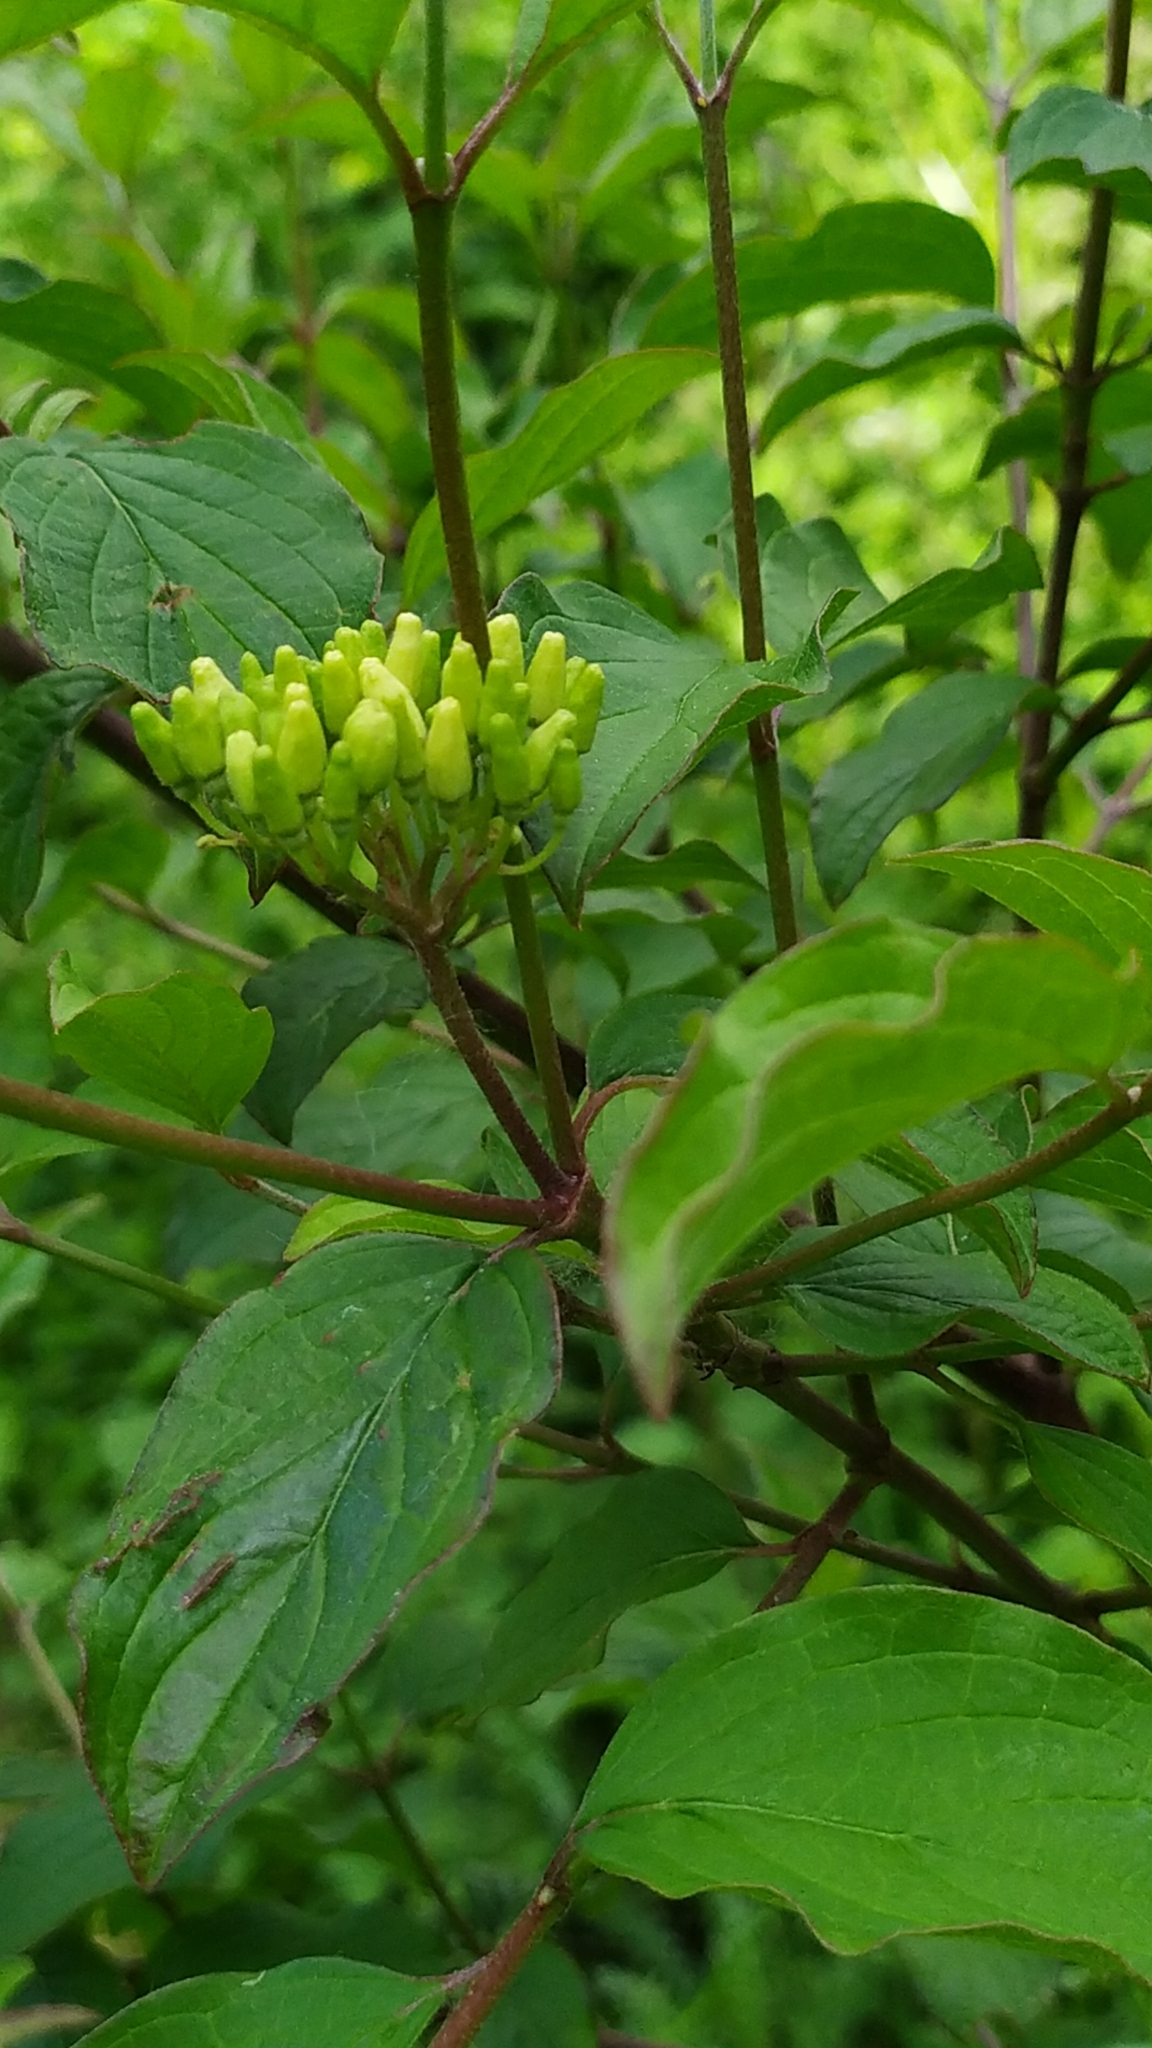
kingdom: Plantae
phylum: Tracheophyta
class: Magnoliopsida
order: Cornales
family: Cornaceae
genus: Cornus
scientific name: Cornus sanguinea
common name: Dogwood
